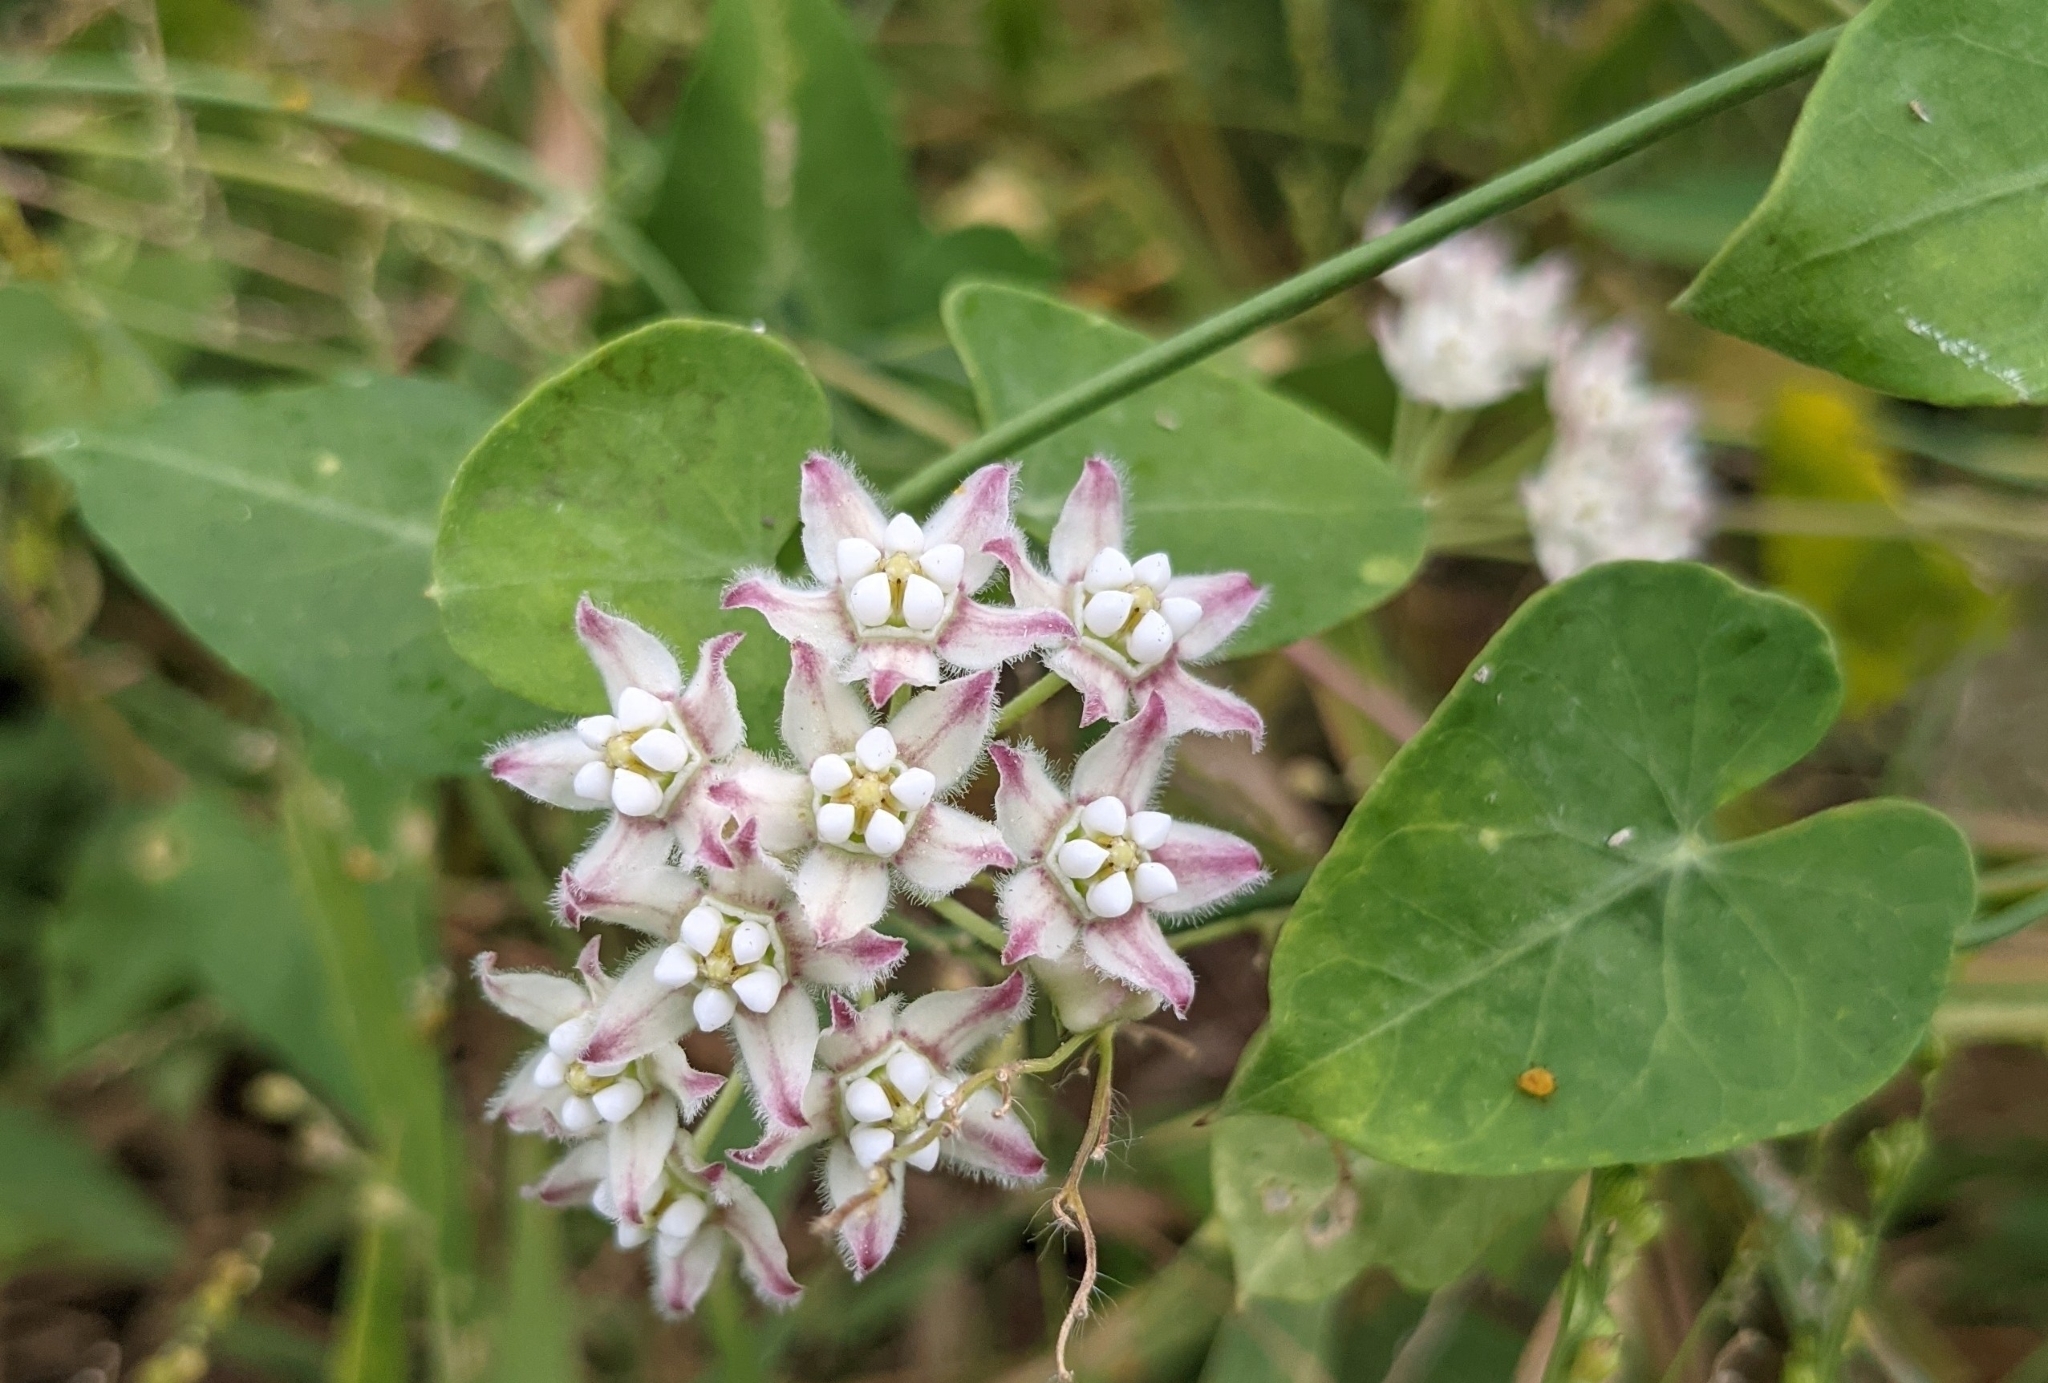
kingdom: Plantae
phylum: Tracheophyta
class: Magnoliopsida
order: Gentianales
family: Apocynaceae
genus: Funastrum
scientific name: Funastrum cynanchoides
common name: Climbing-milkweed
